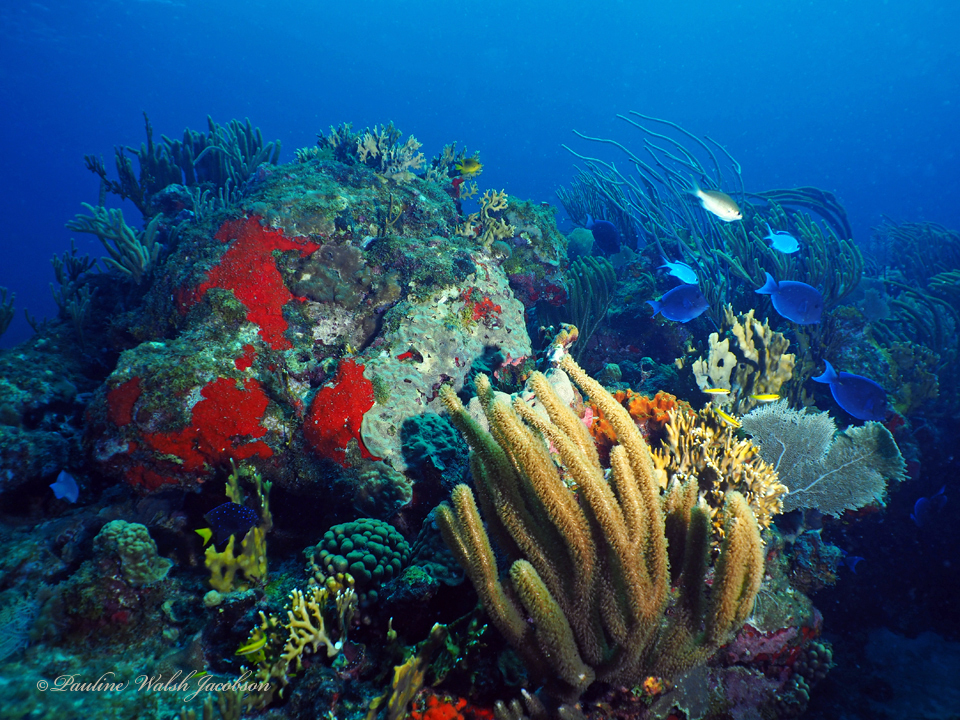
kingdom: Animalia
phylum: Chordata
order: Perciformes
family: Acanthuridae
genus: Acanthurus
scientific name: Acanthurus coeruleus
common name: Blue tang
